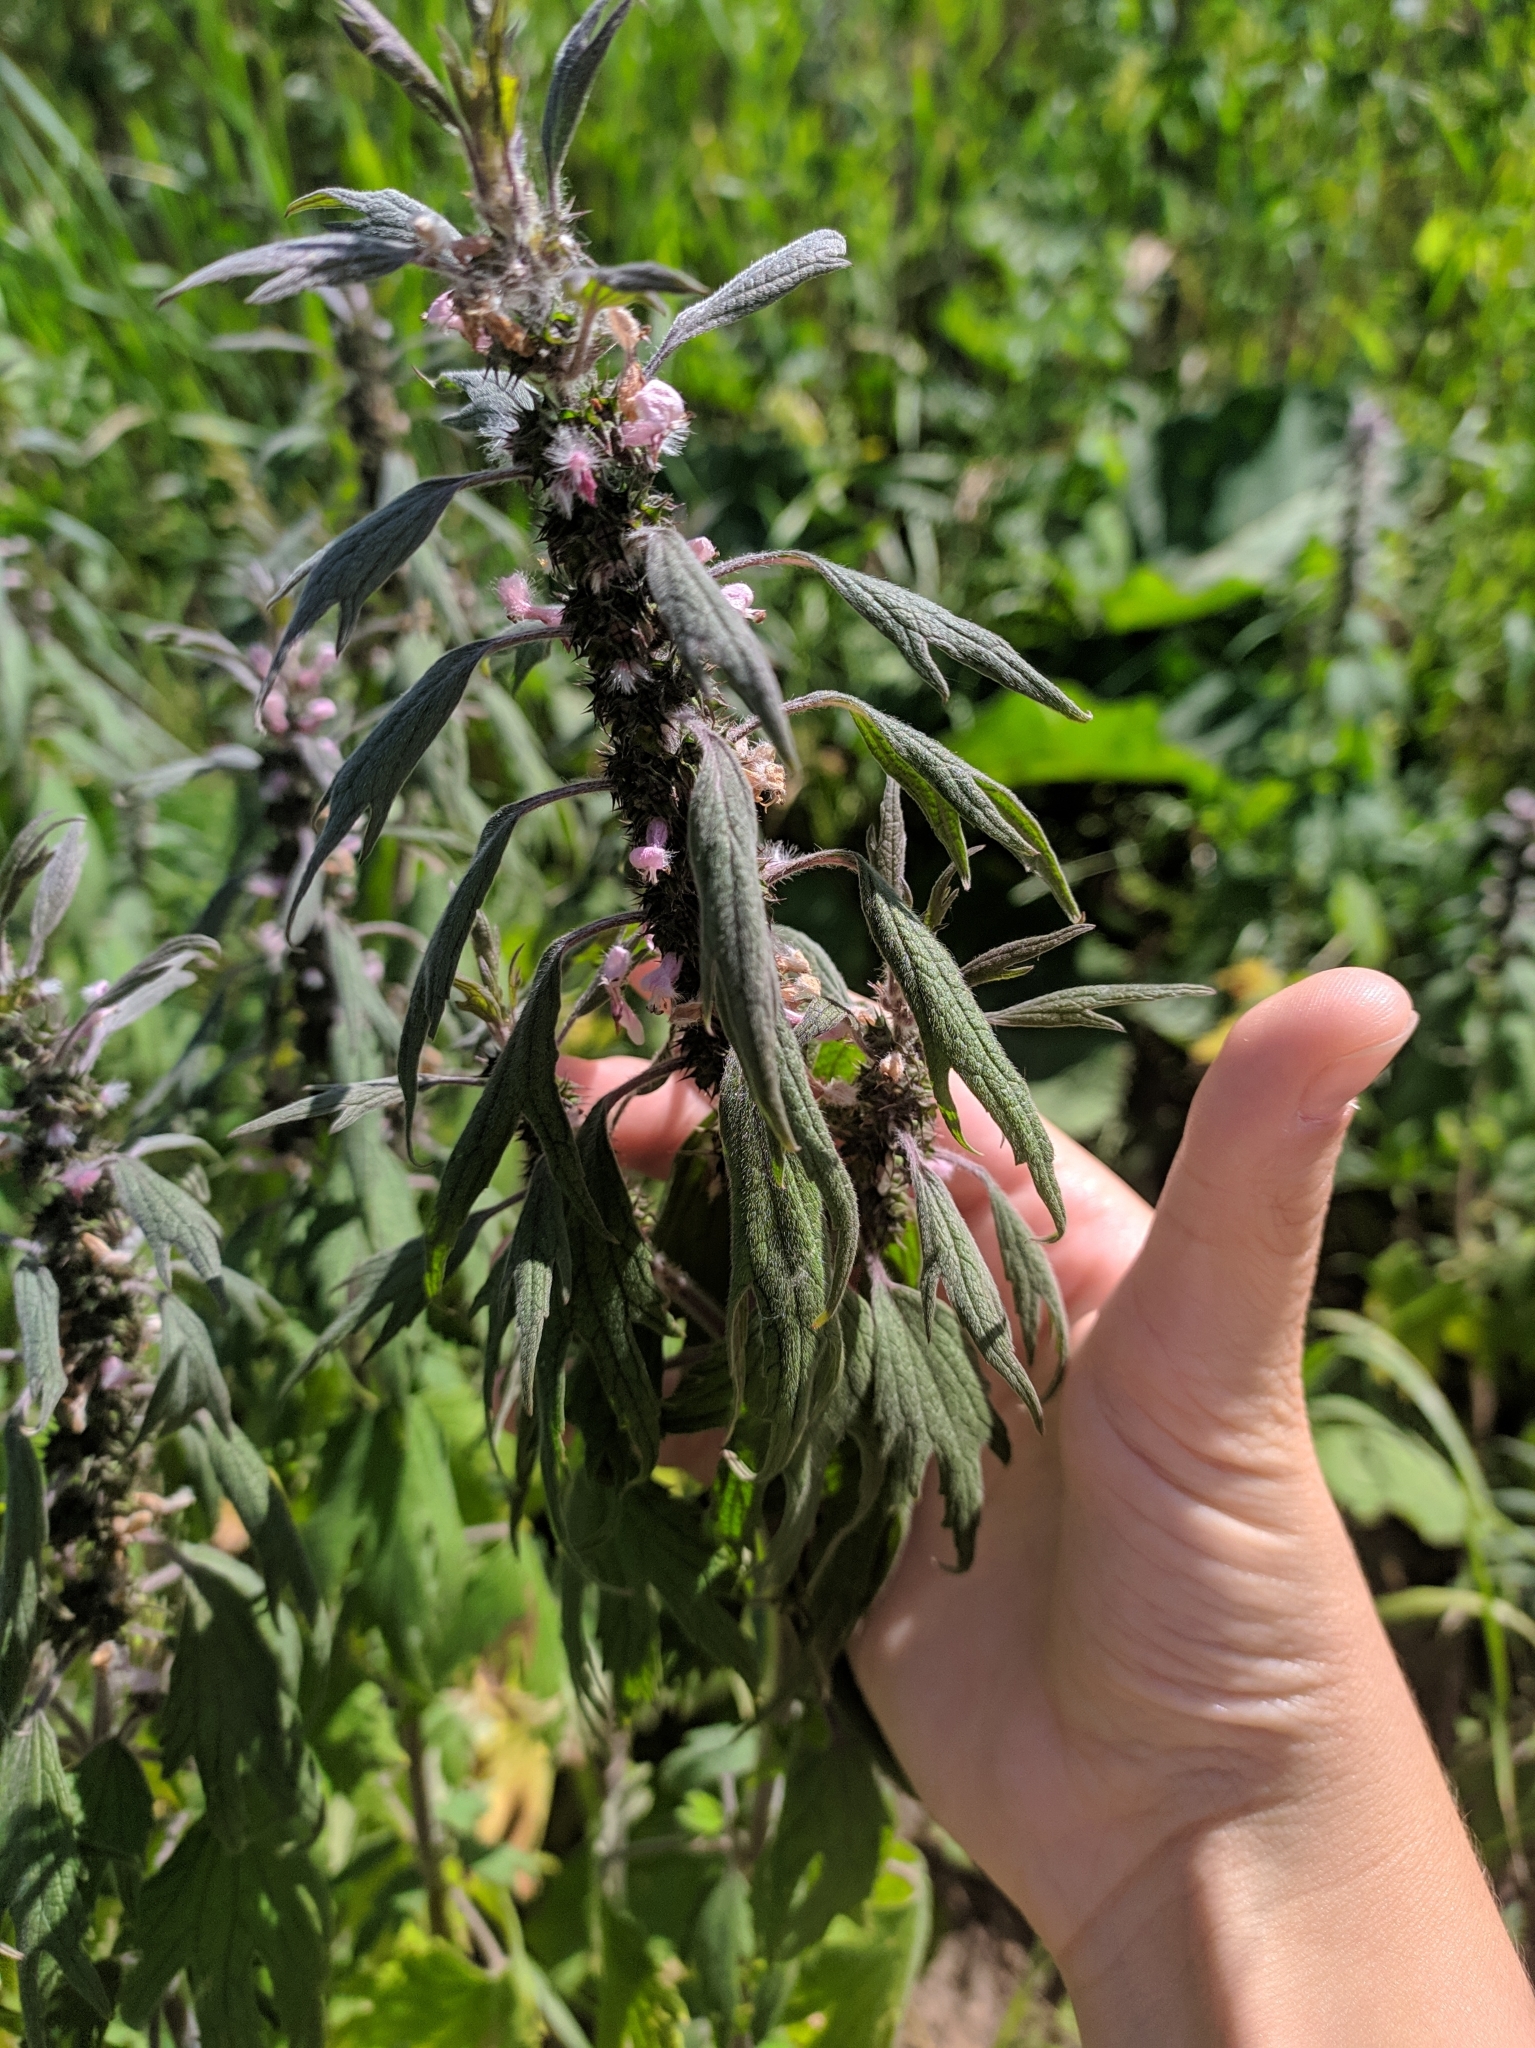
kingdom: Plantae
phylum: Tracheophyta
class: Magnoliopsida
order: Lamiales
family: Lamiaceae
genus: Leonurus
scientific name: Leonurus quinquelobatus
